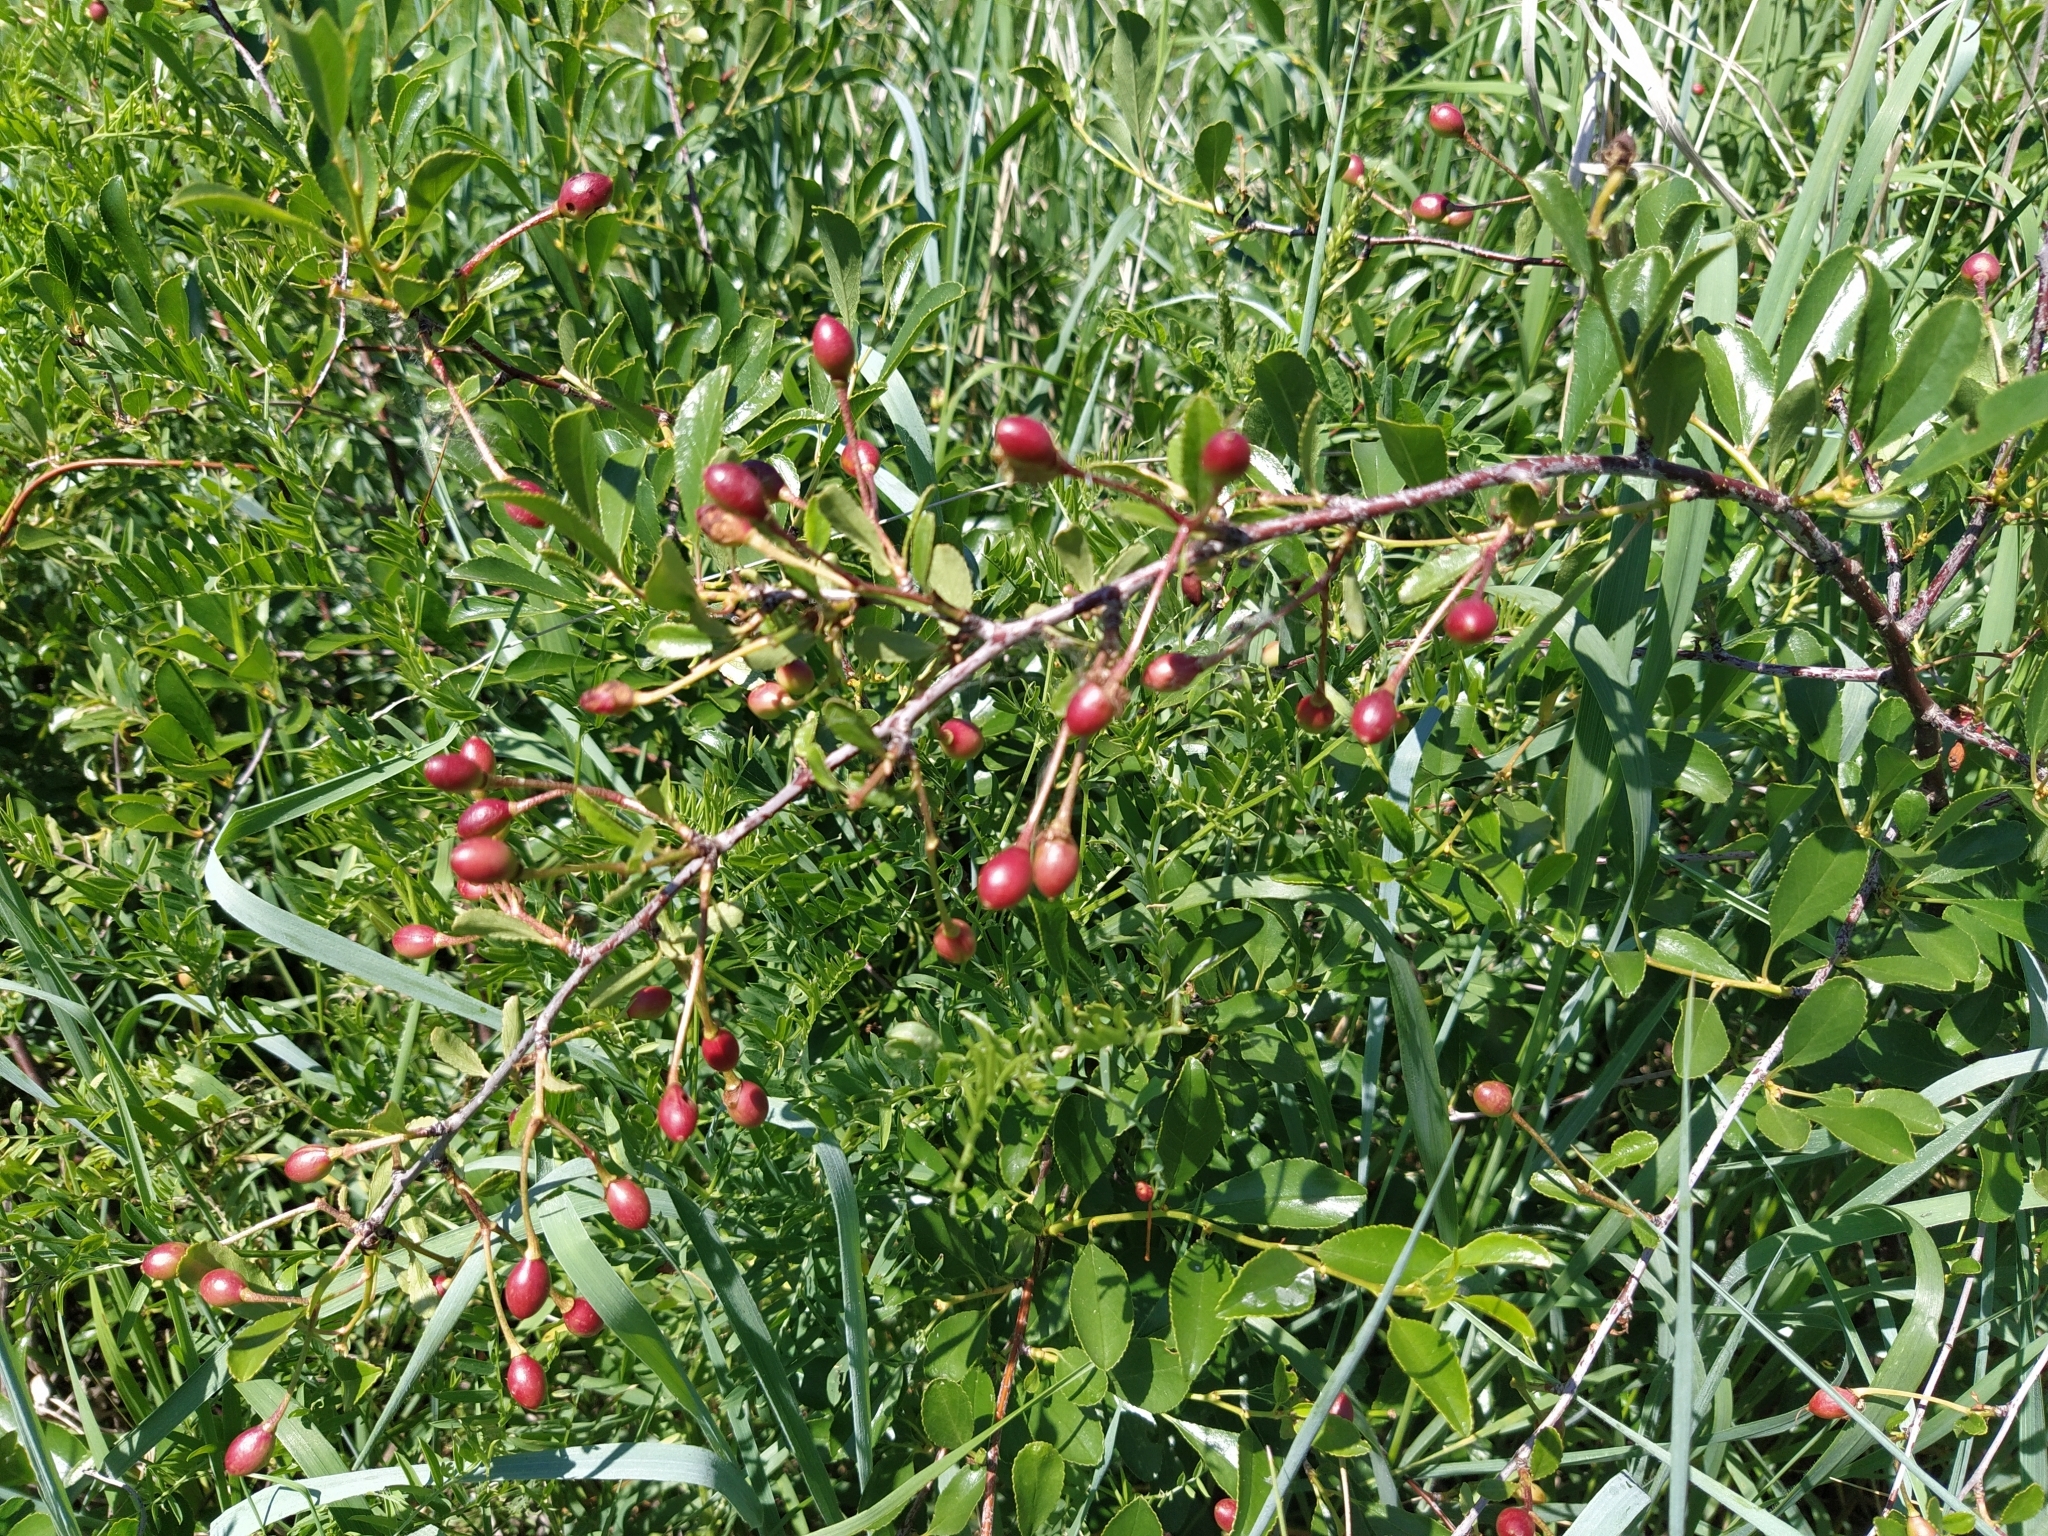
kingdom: Plantae
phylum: Tracheophyta
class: Magnoliopsida
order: Rosales
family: Rosaceae
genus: Prunus
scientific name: Prunus fruticosa
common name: European dwarf cherry
